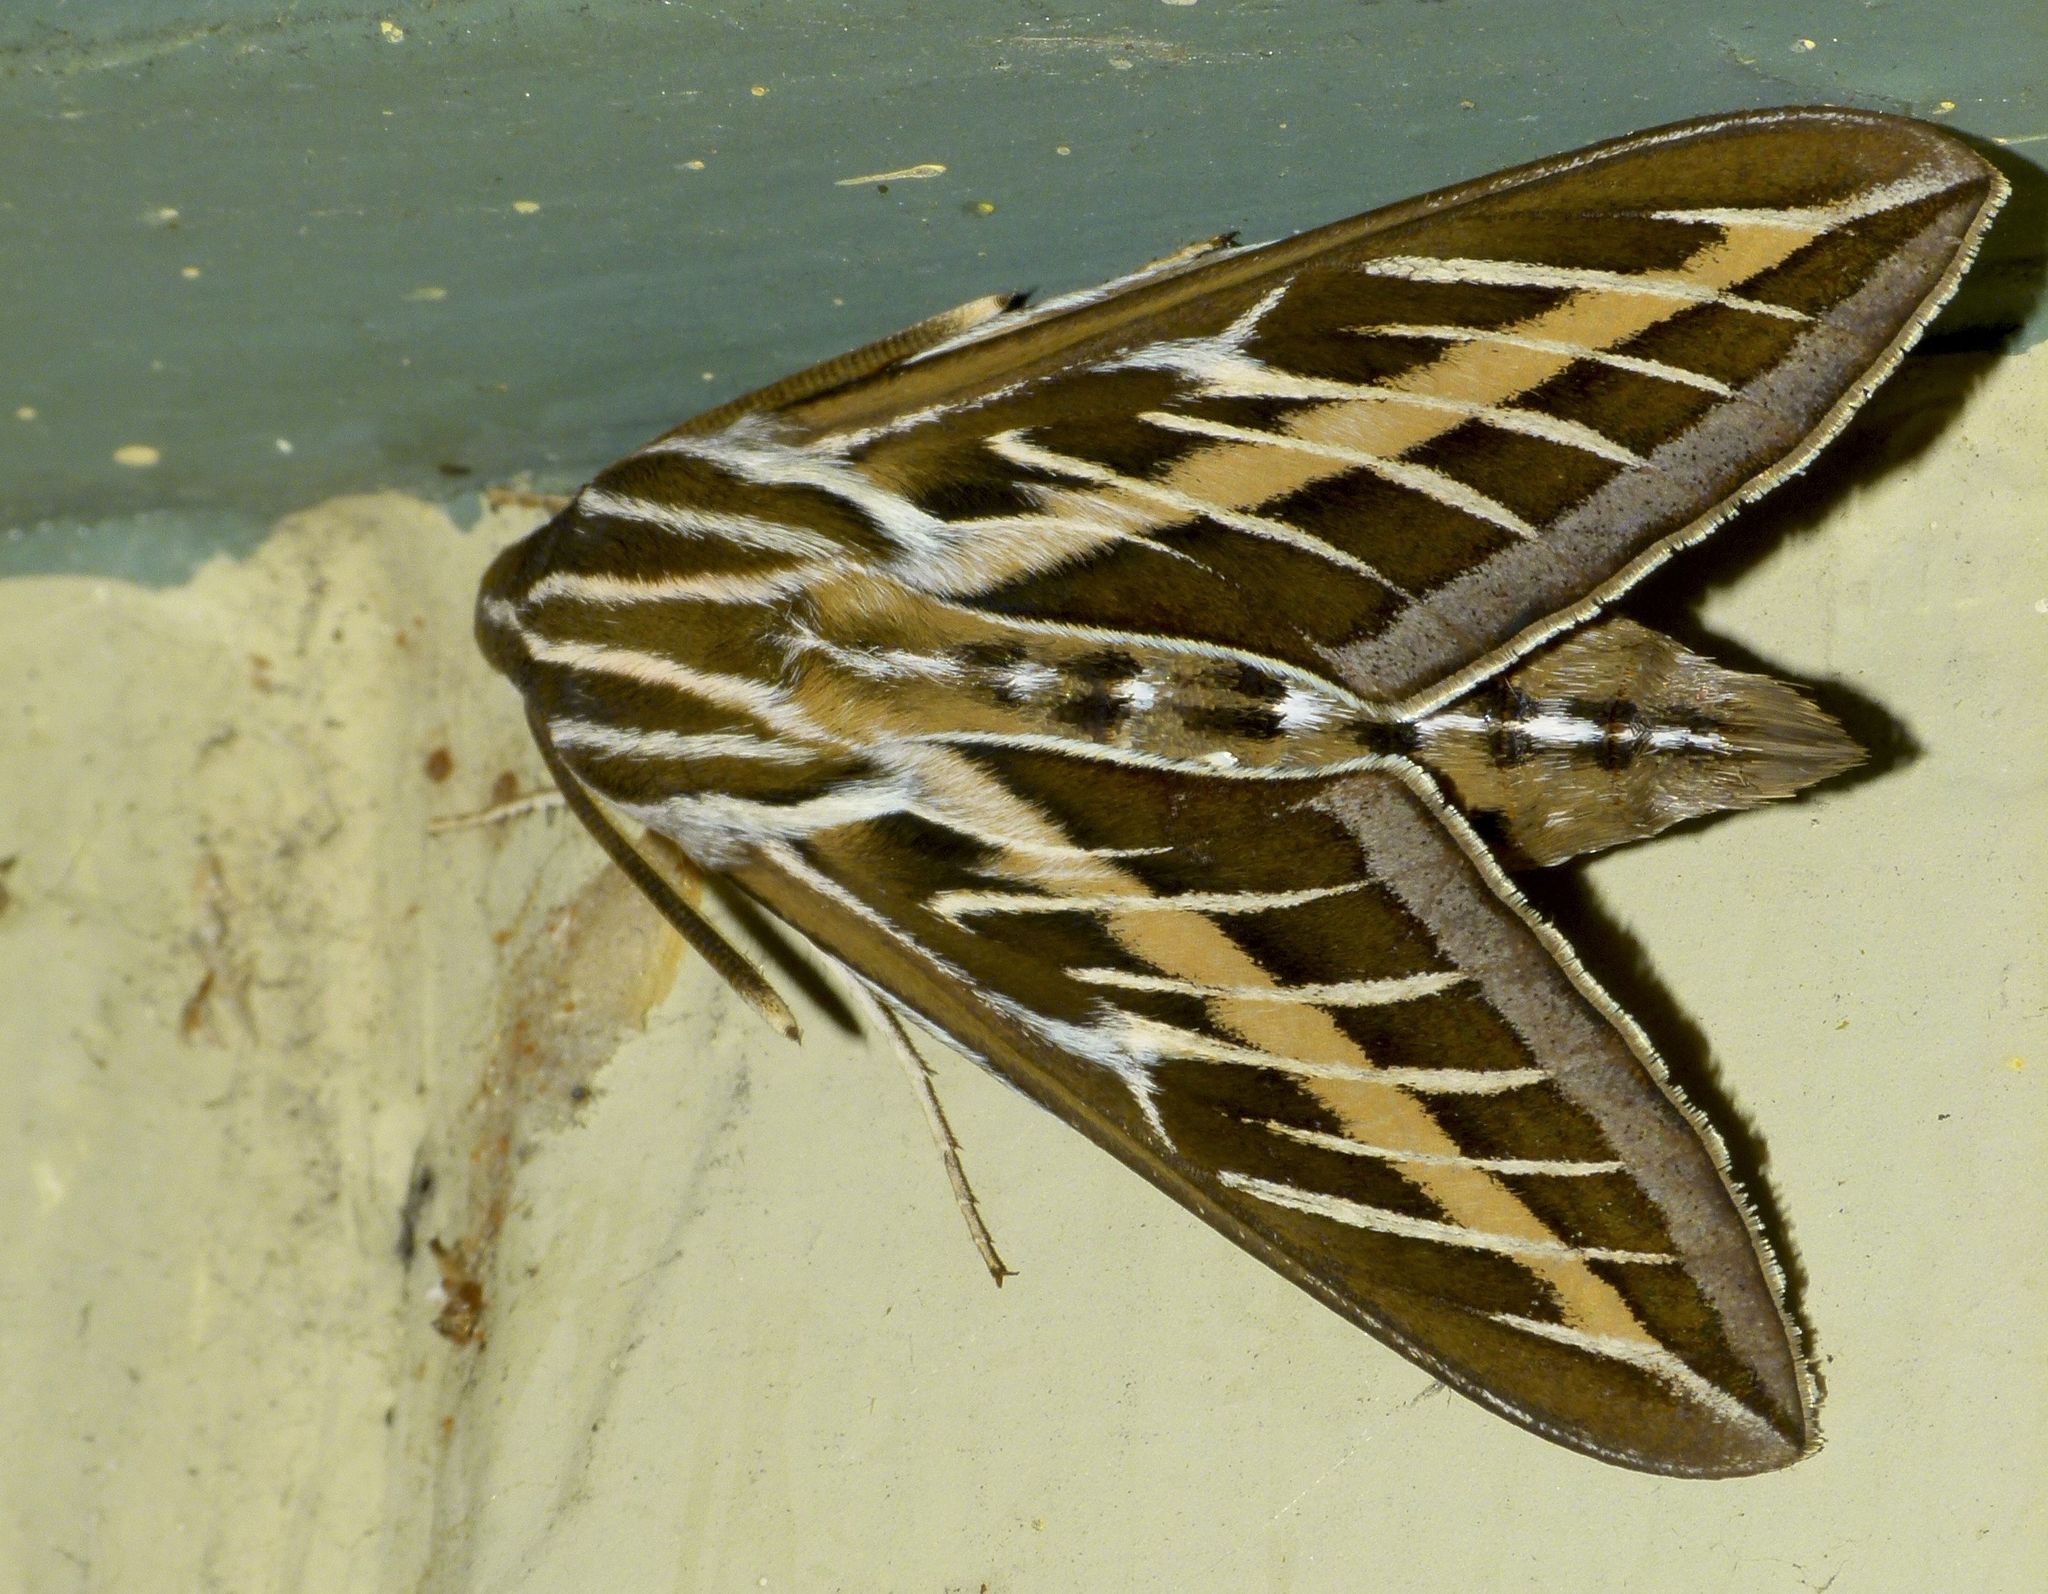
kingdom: Animalia
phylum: Arthropoda
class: Insecta
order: Lepidoptera
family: Sphingidae
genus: Hyles
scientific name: Hyles lineata
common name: White-lined sphinx
